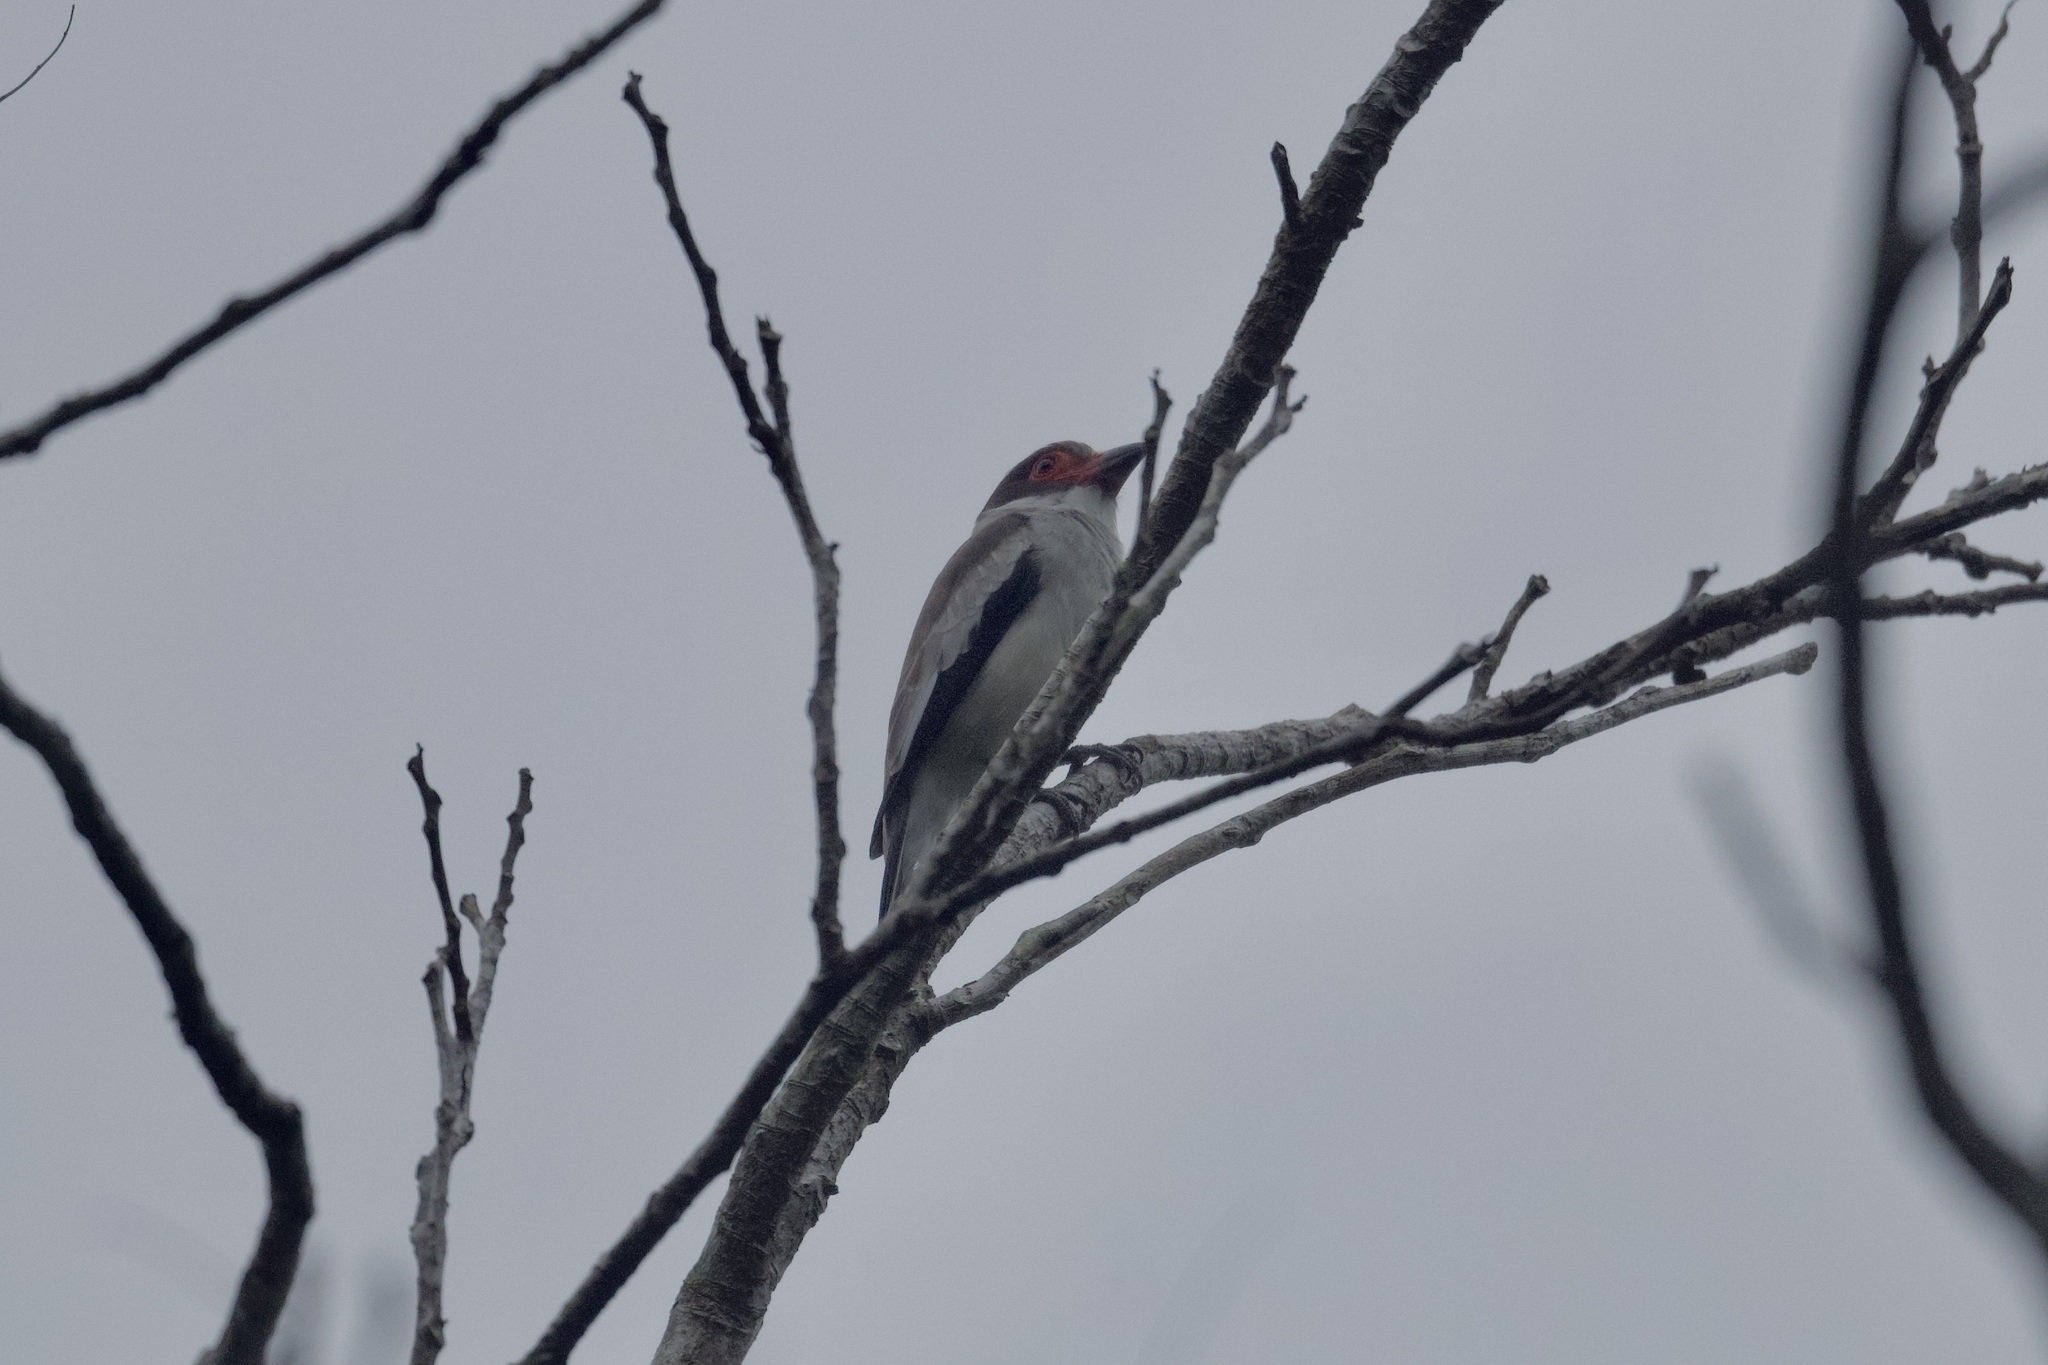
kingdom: Animalia
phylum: Chordata
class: Aves
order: Passeriformes
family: Cotingidae
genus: Tityra
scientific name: Tityra semifasciata
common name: Masked tityra
